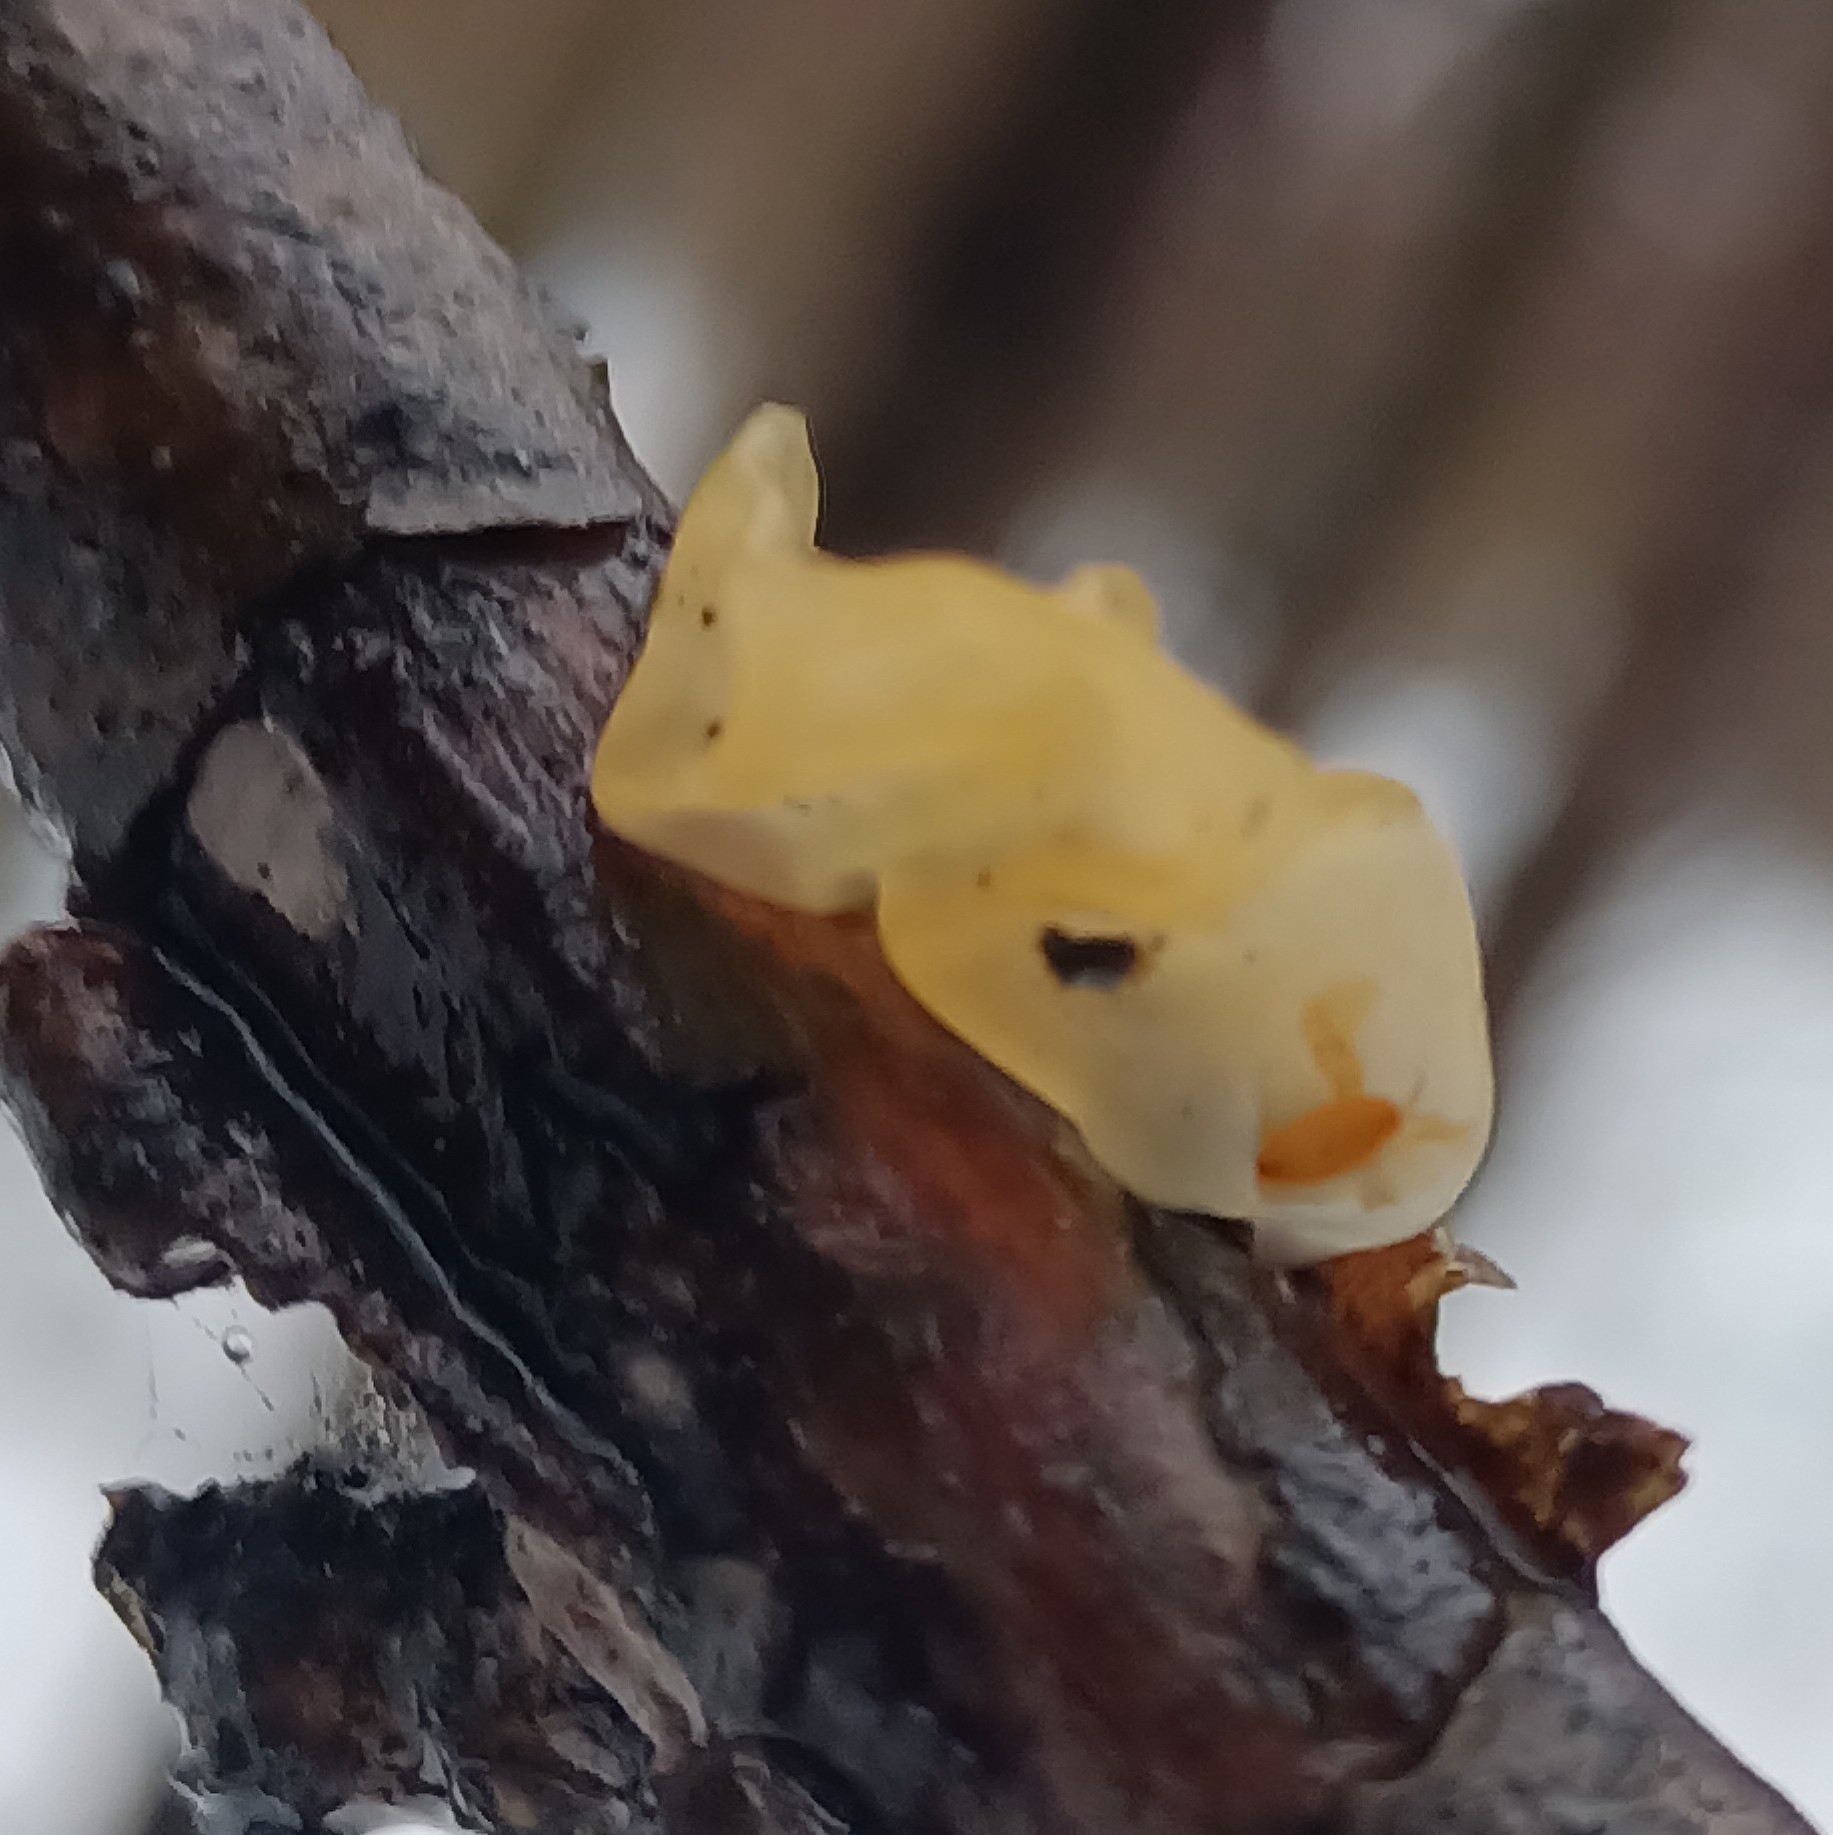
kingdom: Fungi
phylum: Basidiomycota
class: Tremellomycetes
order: Tremellales
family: Tremellaceae
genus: Tremella
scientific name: Tremella mesenterica
